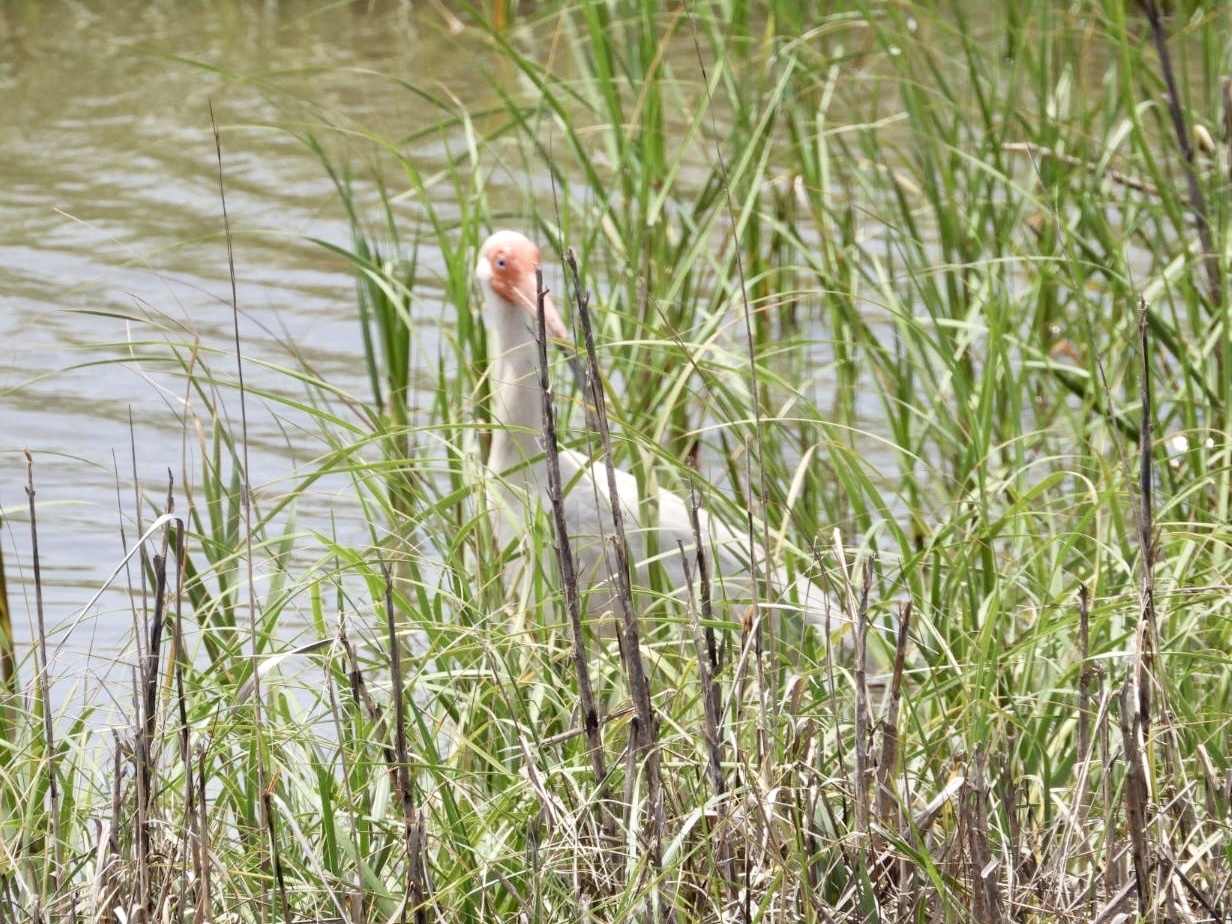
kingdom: Animalia
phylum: Chordata
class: Aves
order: Pelecaniformes
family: Threskiornithidae
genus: Eudocimus
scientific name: Eudocimus albus
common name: White ibis
